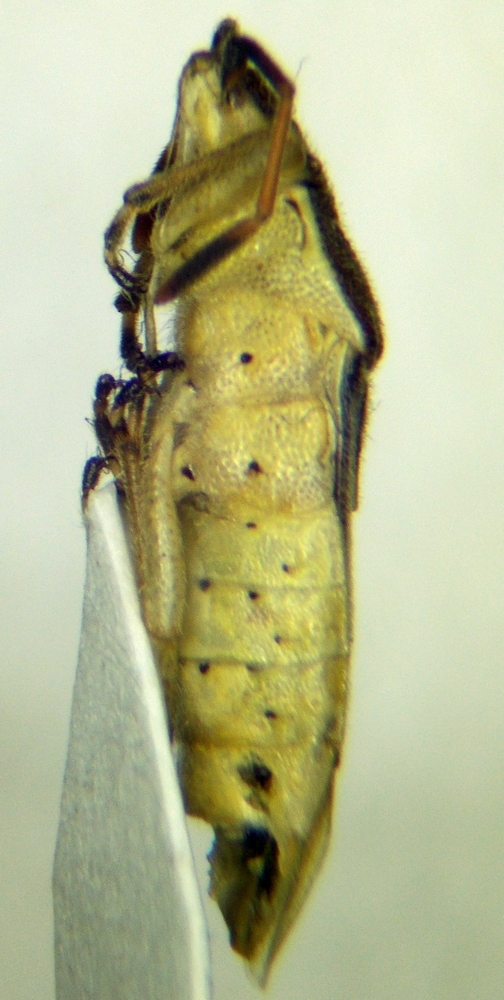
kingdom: Animalia
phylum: Arthropoda
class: Insecta
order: Hemiptera
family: Rhopalidae
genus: Maccevethus
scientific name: Maccevethus corsicus
